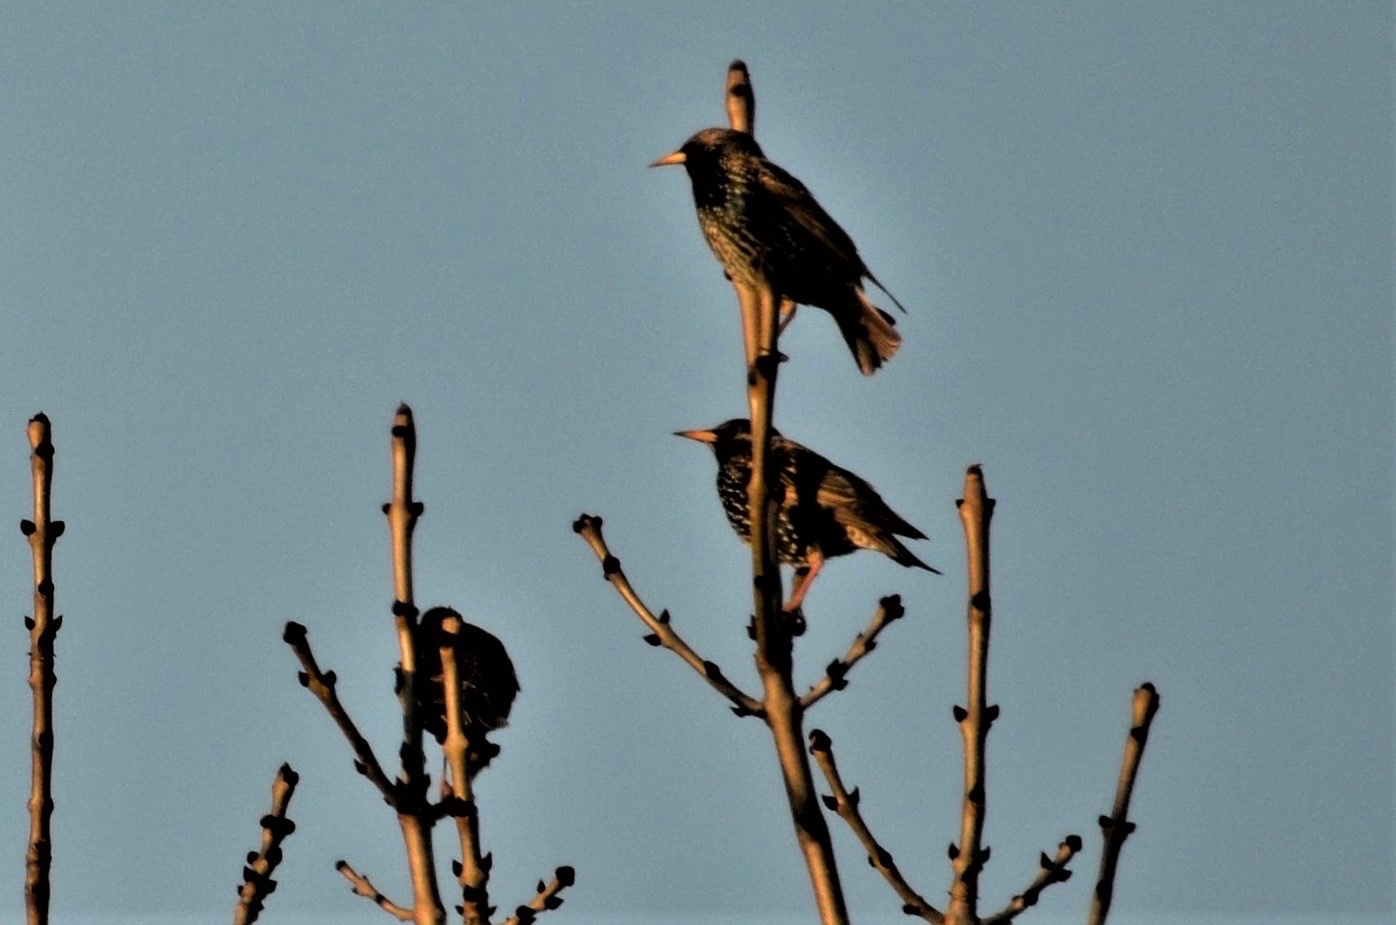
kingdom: Animalia
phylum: Chordata
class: Aves
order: Passeriformes
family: Sturnidae
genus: Sturnus
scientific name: Sturnus vulgaris
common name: Common starling
